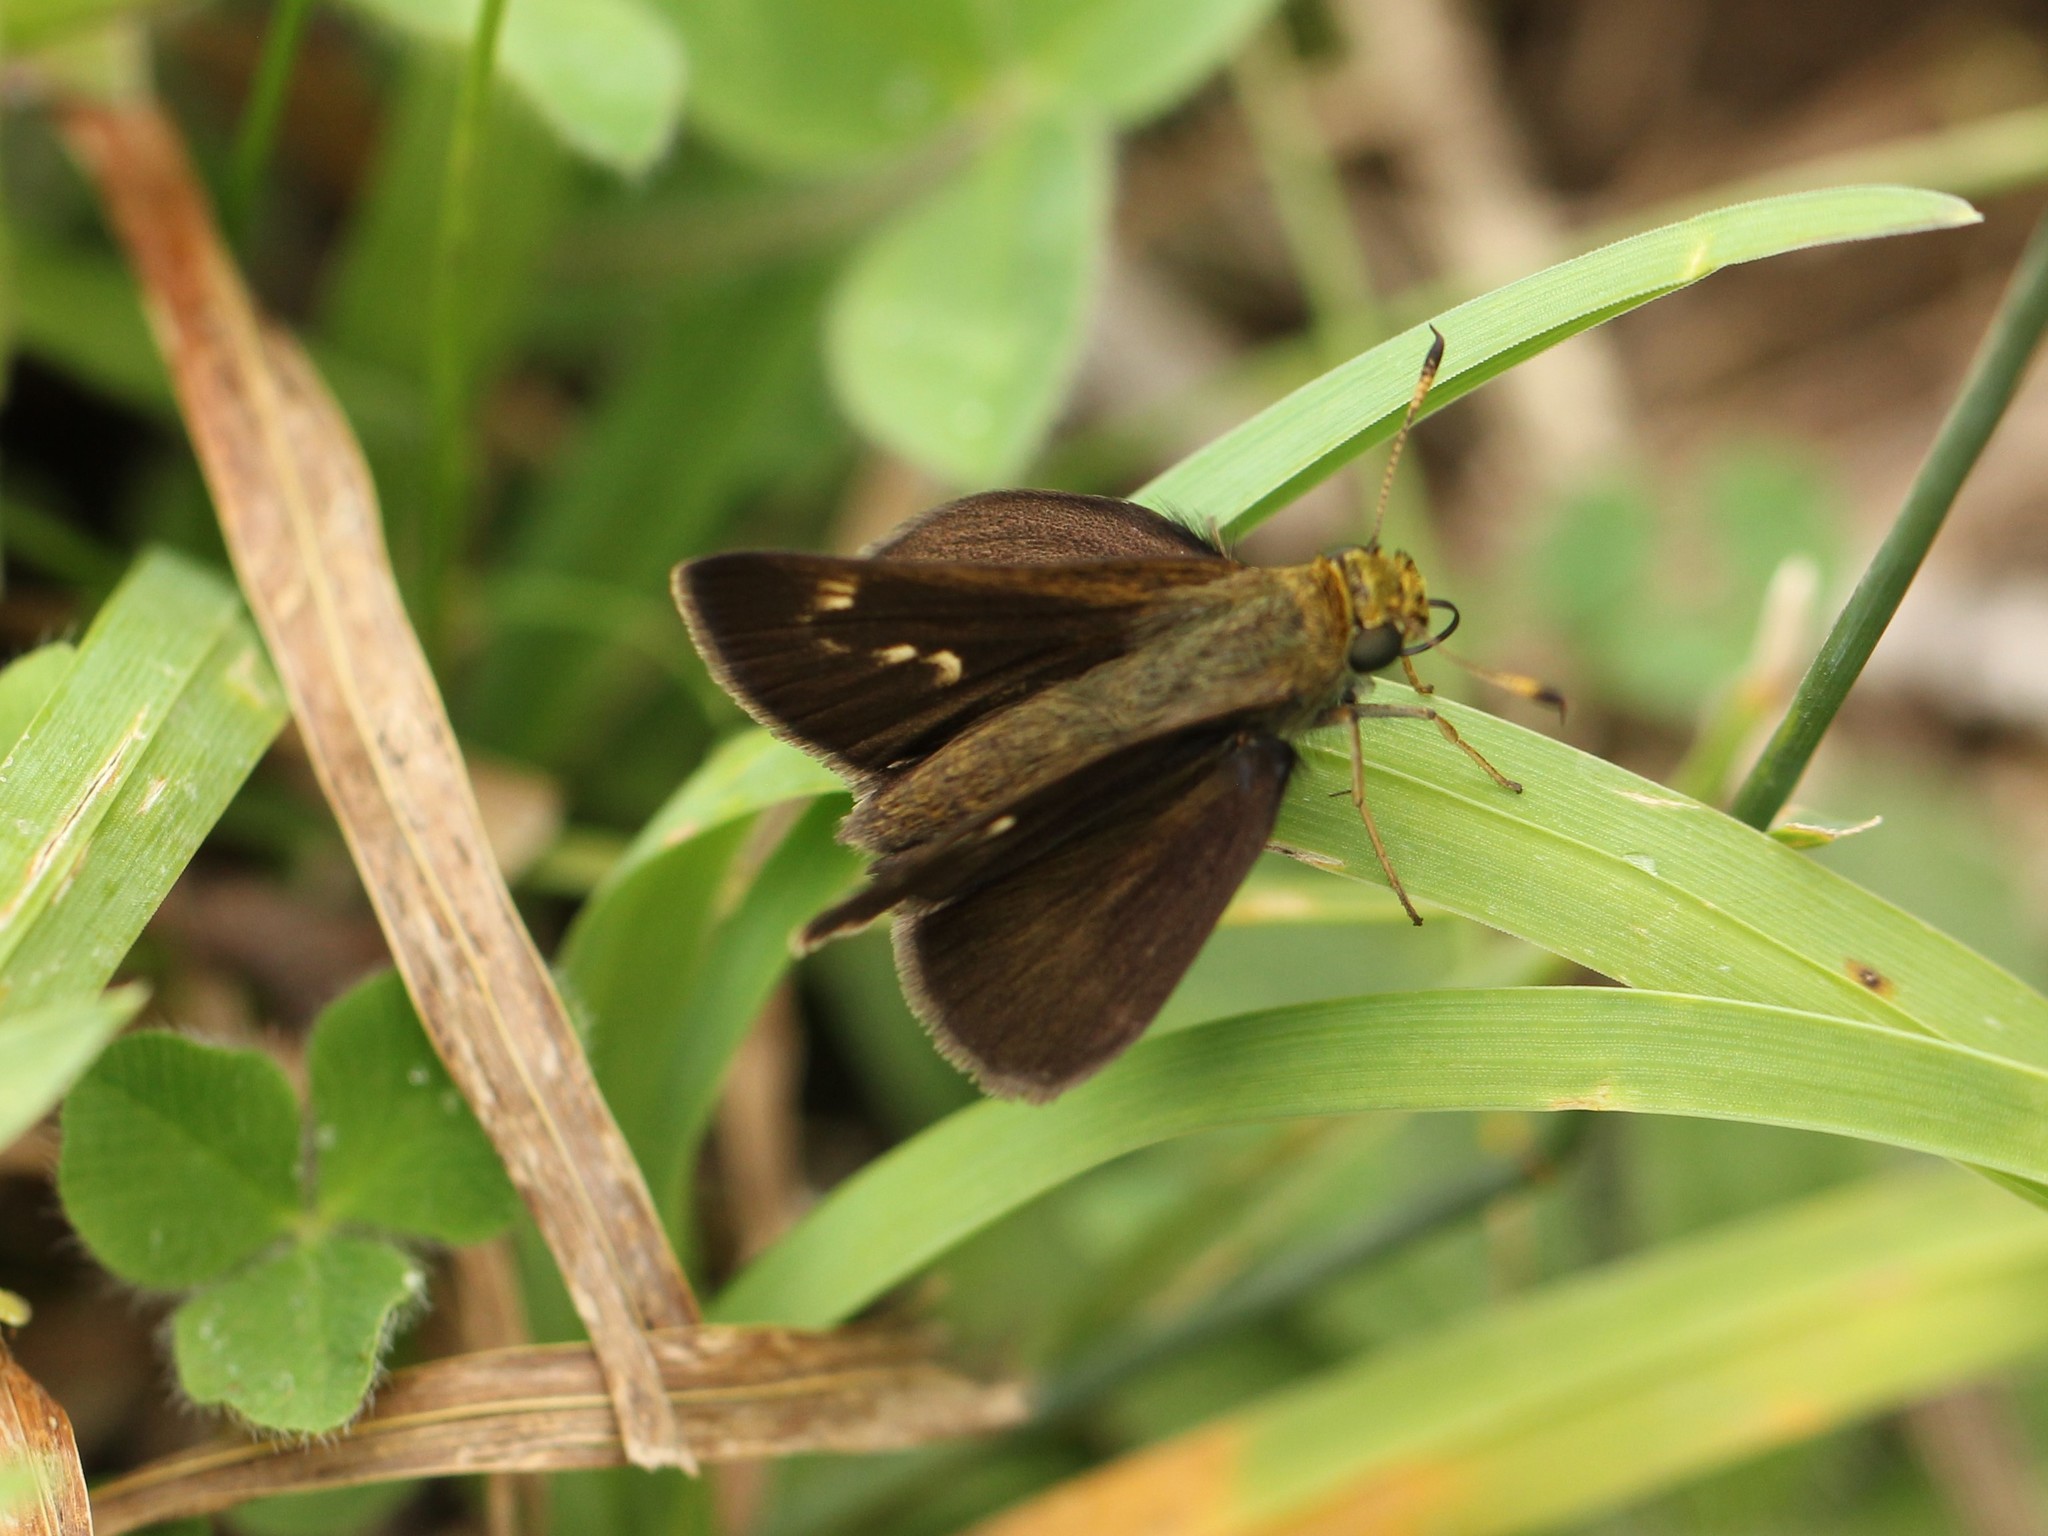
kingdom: Animalia
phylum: Arthropoda
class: Insecta
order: Lepidoptera
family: Hesperiidae
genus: Vernia
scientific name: Vernia verna
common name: Little glassywing
